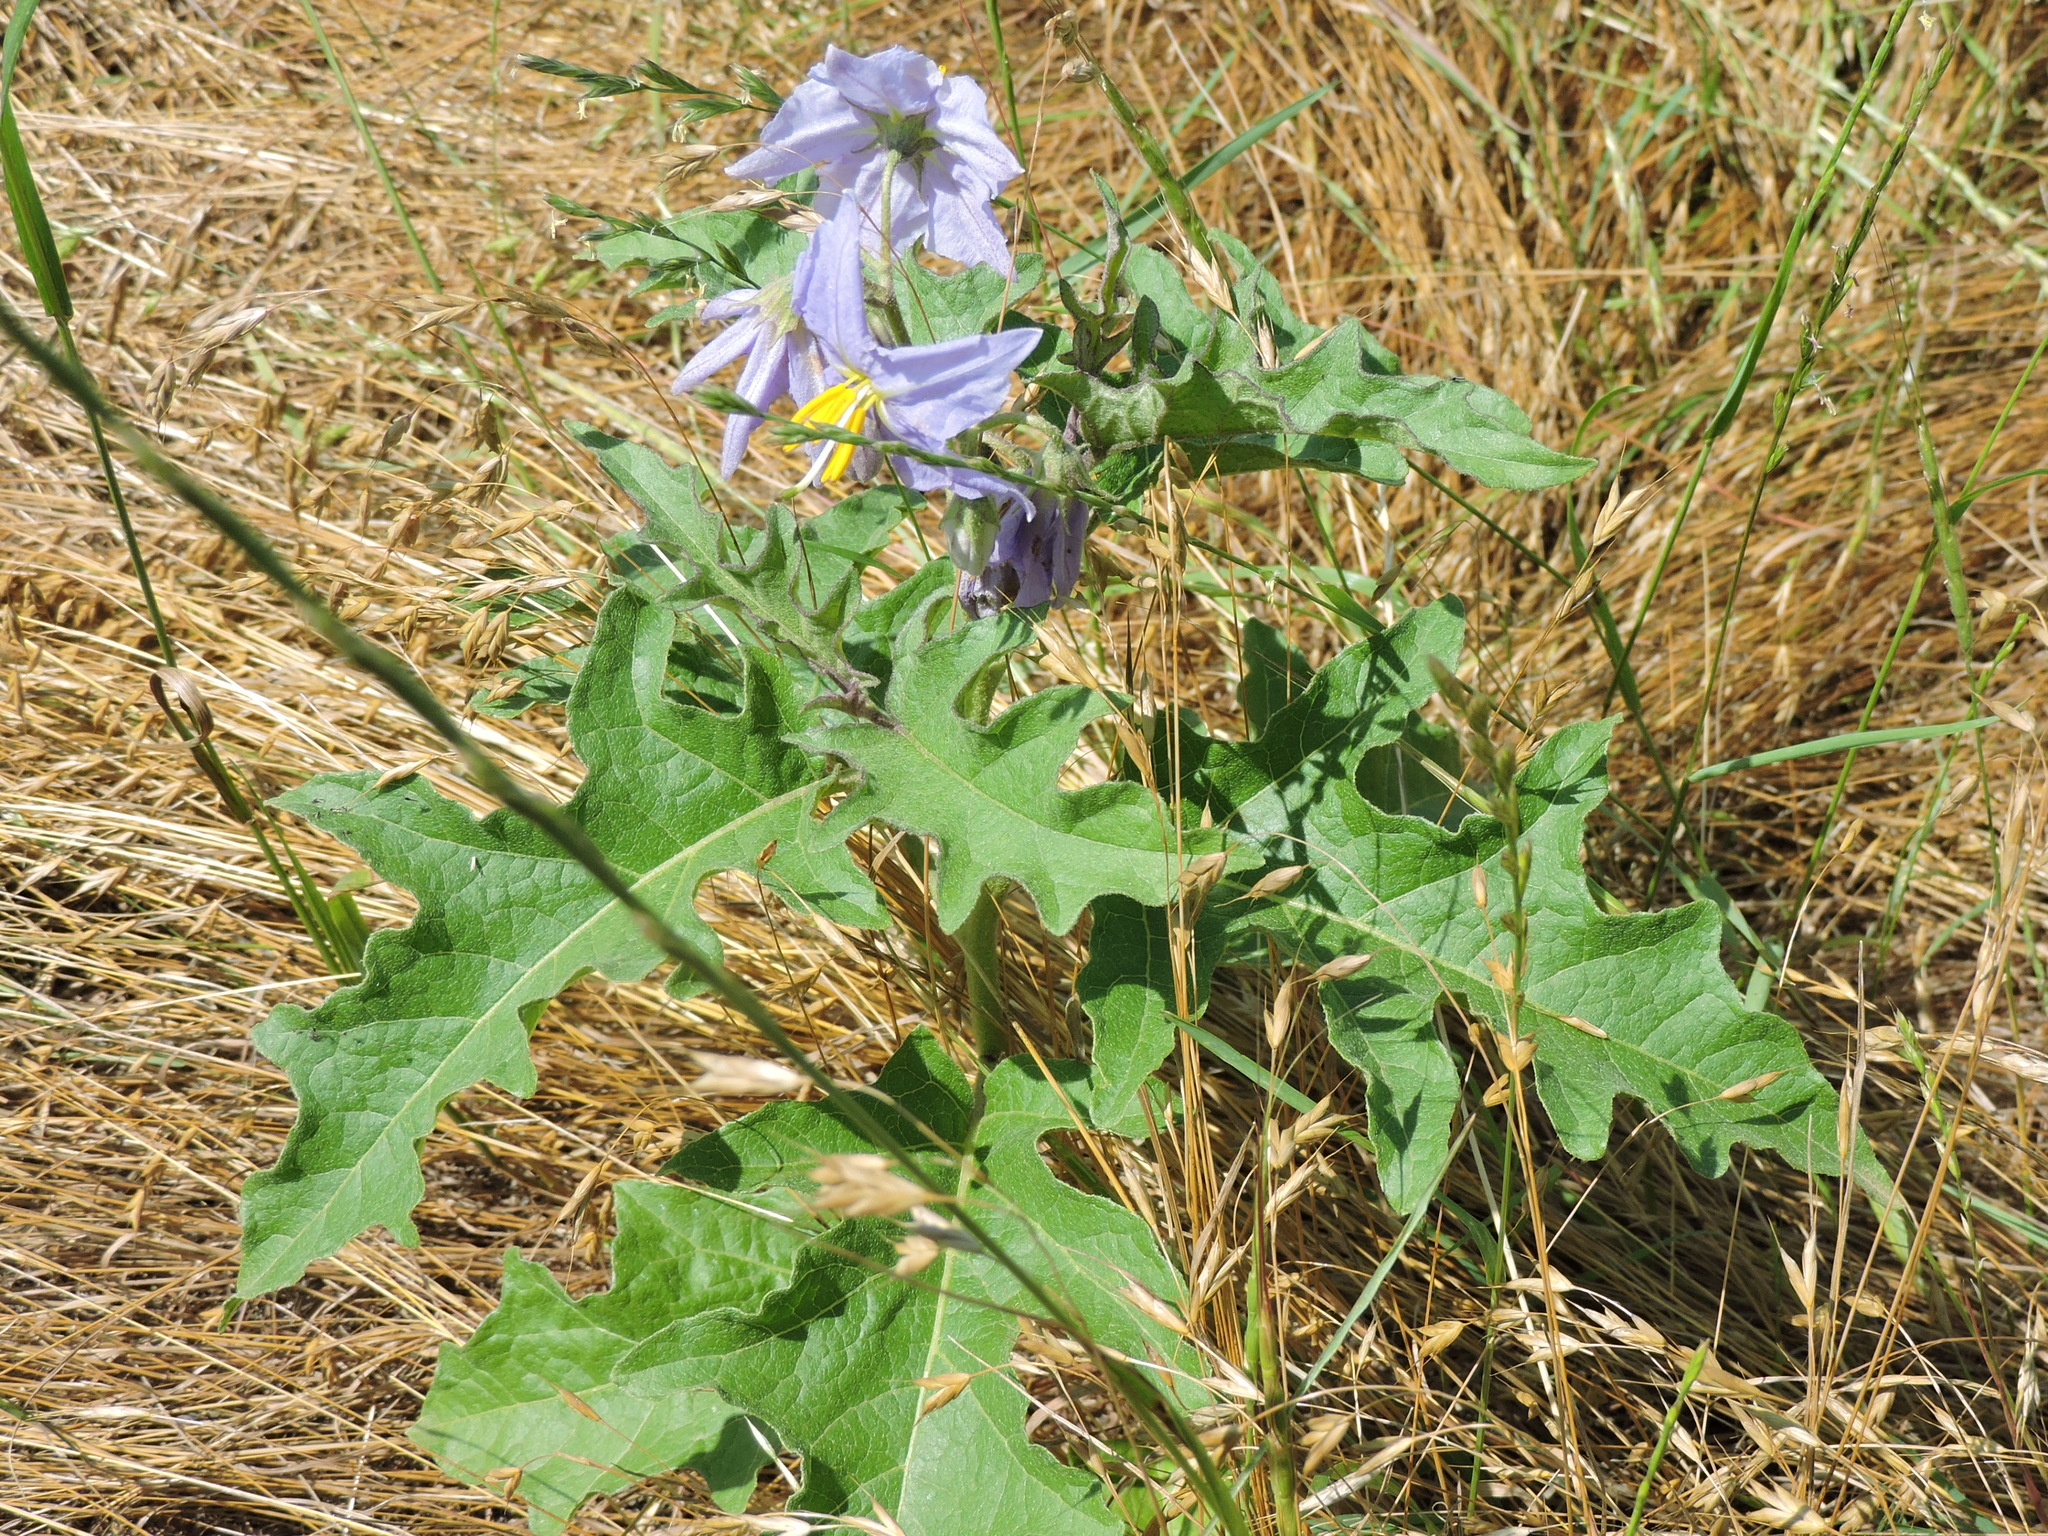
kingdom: Plantae
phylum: Tracheophyta
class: Magnoliopsida
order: Solanales
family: Solanaceae
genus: Solanum
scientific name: Solanum dimidiatum
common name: Carolina horse-nettle
